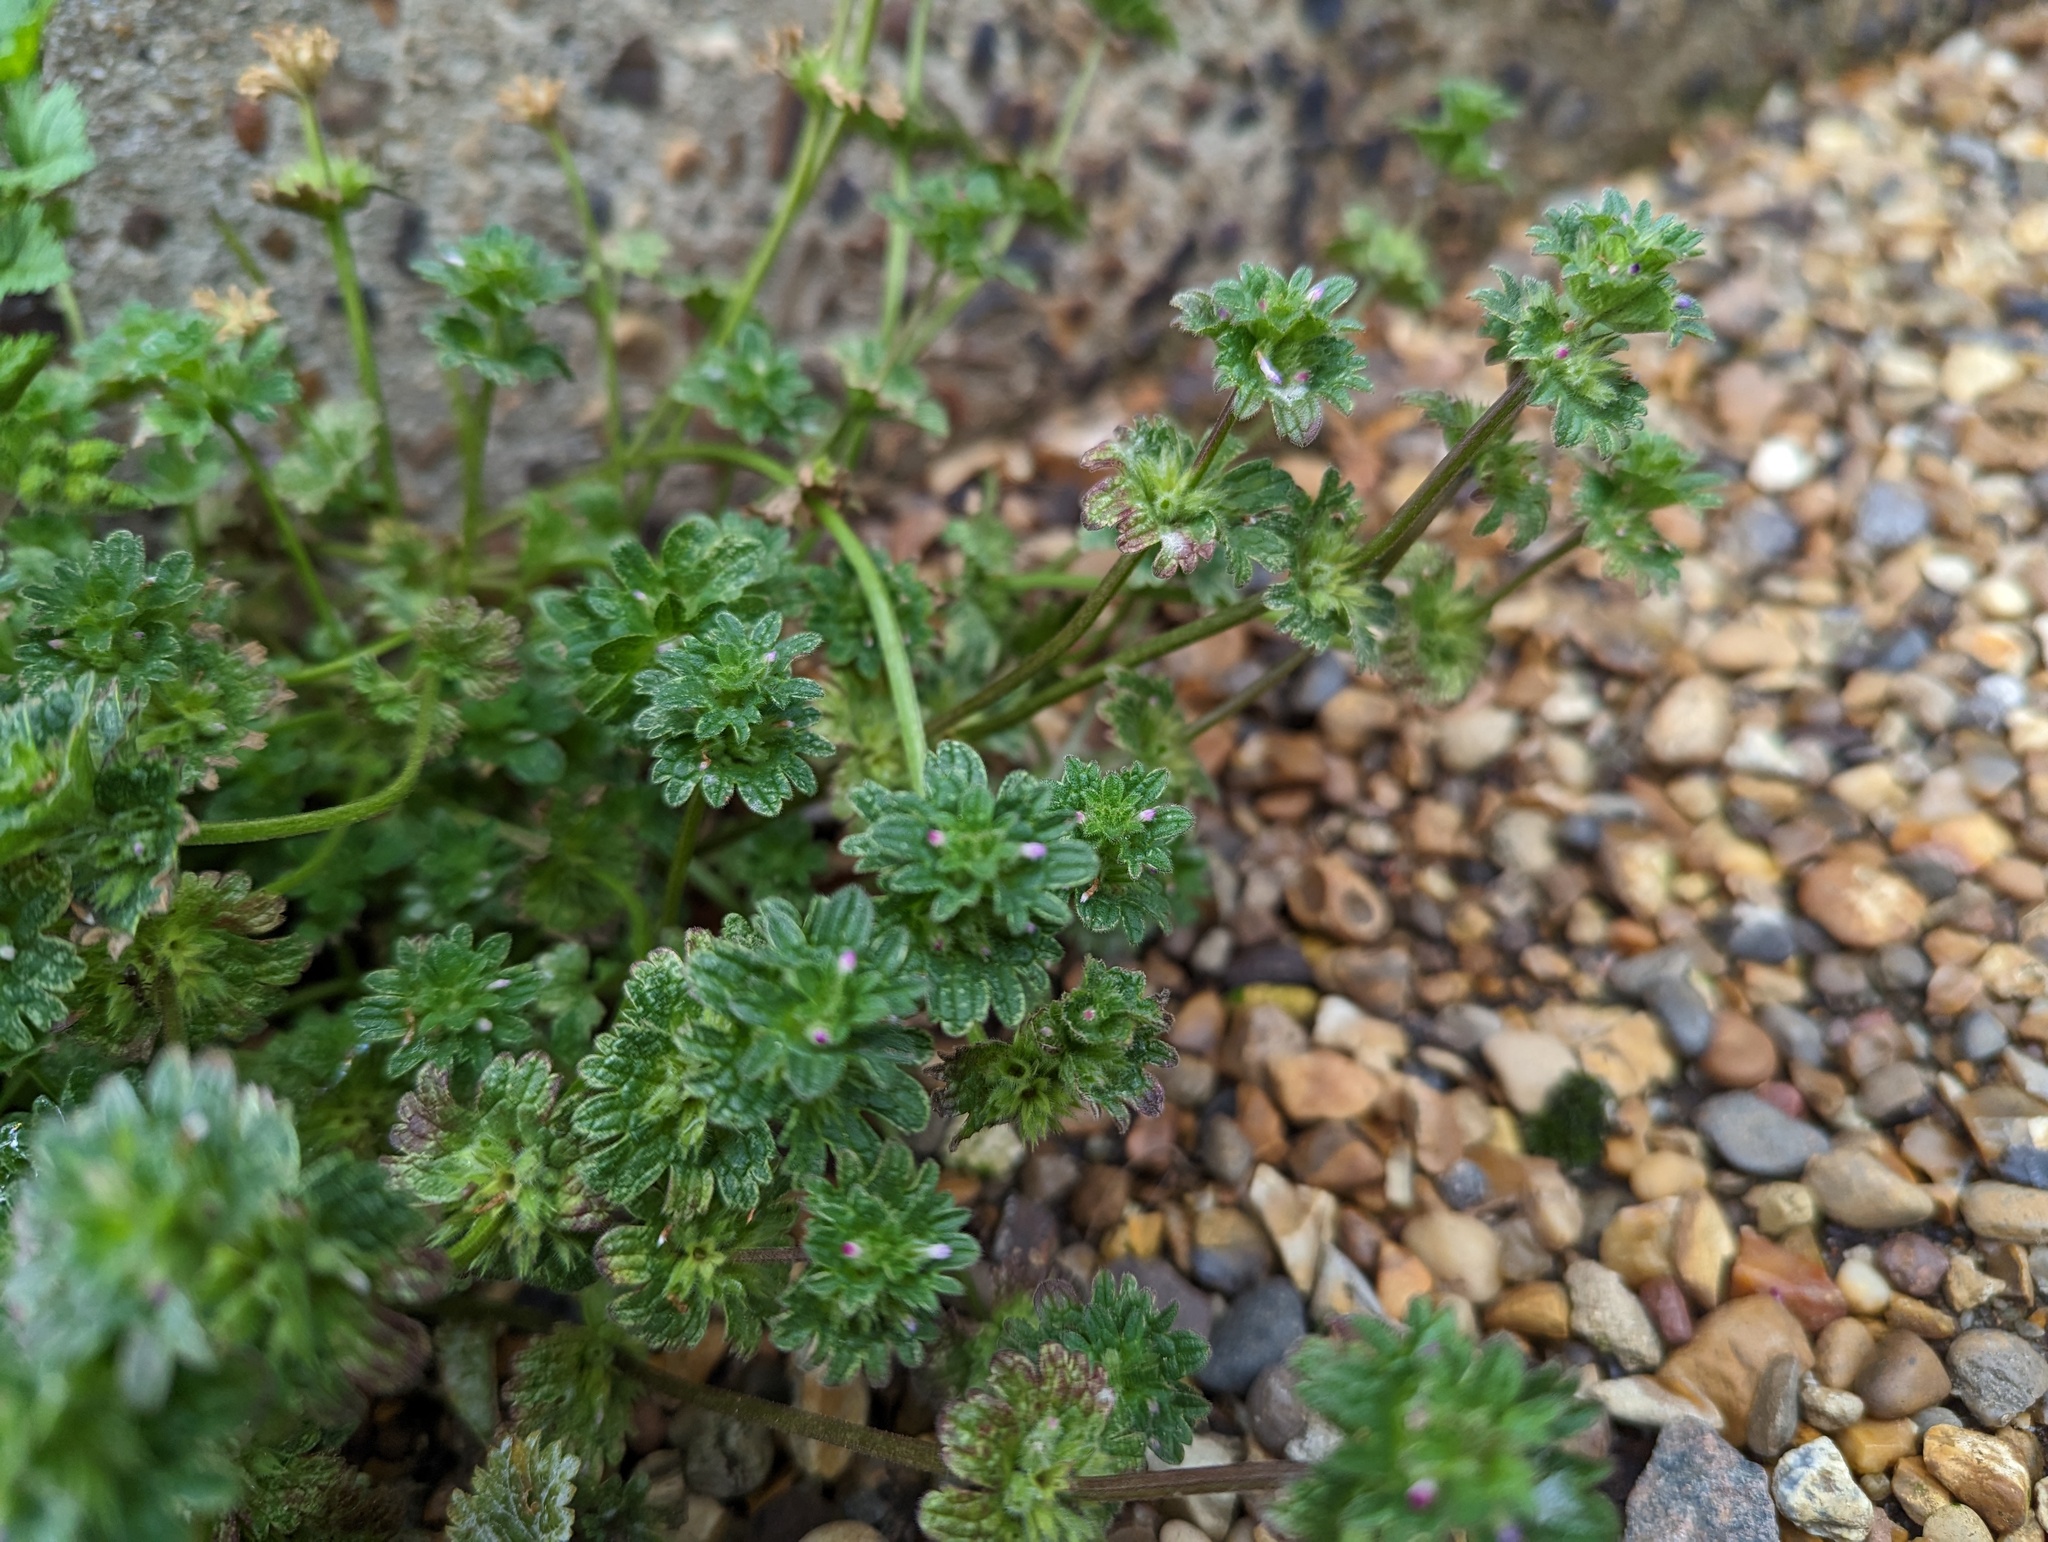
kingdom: Plantae
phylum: Tracheophyta
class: Magnoliopsida
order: Lamiales
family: Lamiaceae
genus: Lamium
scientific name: Lamium amplexicaule
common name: Henbit dead-nettle
